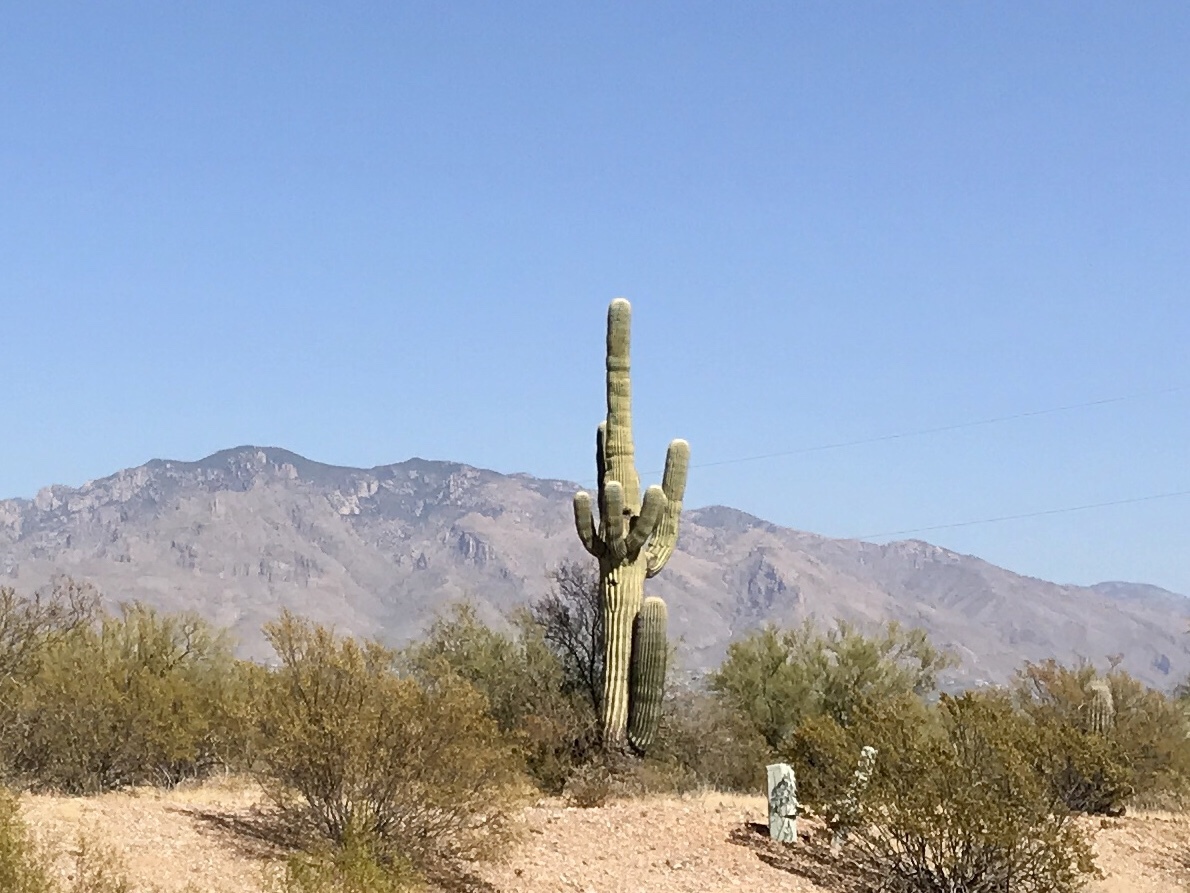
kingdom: Plantae
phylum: Tracheophyta
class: Magnoliopsida
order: Caryophyllales
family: Cactaceae
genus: Carnegiea
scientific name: Carnegiea gigantea
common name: Saguaro
